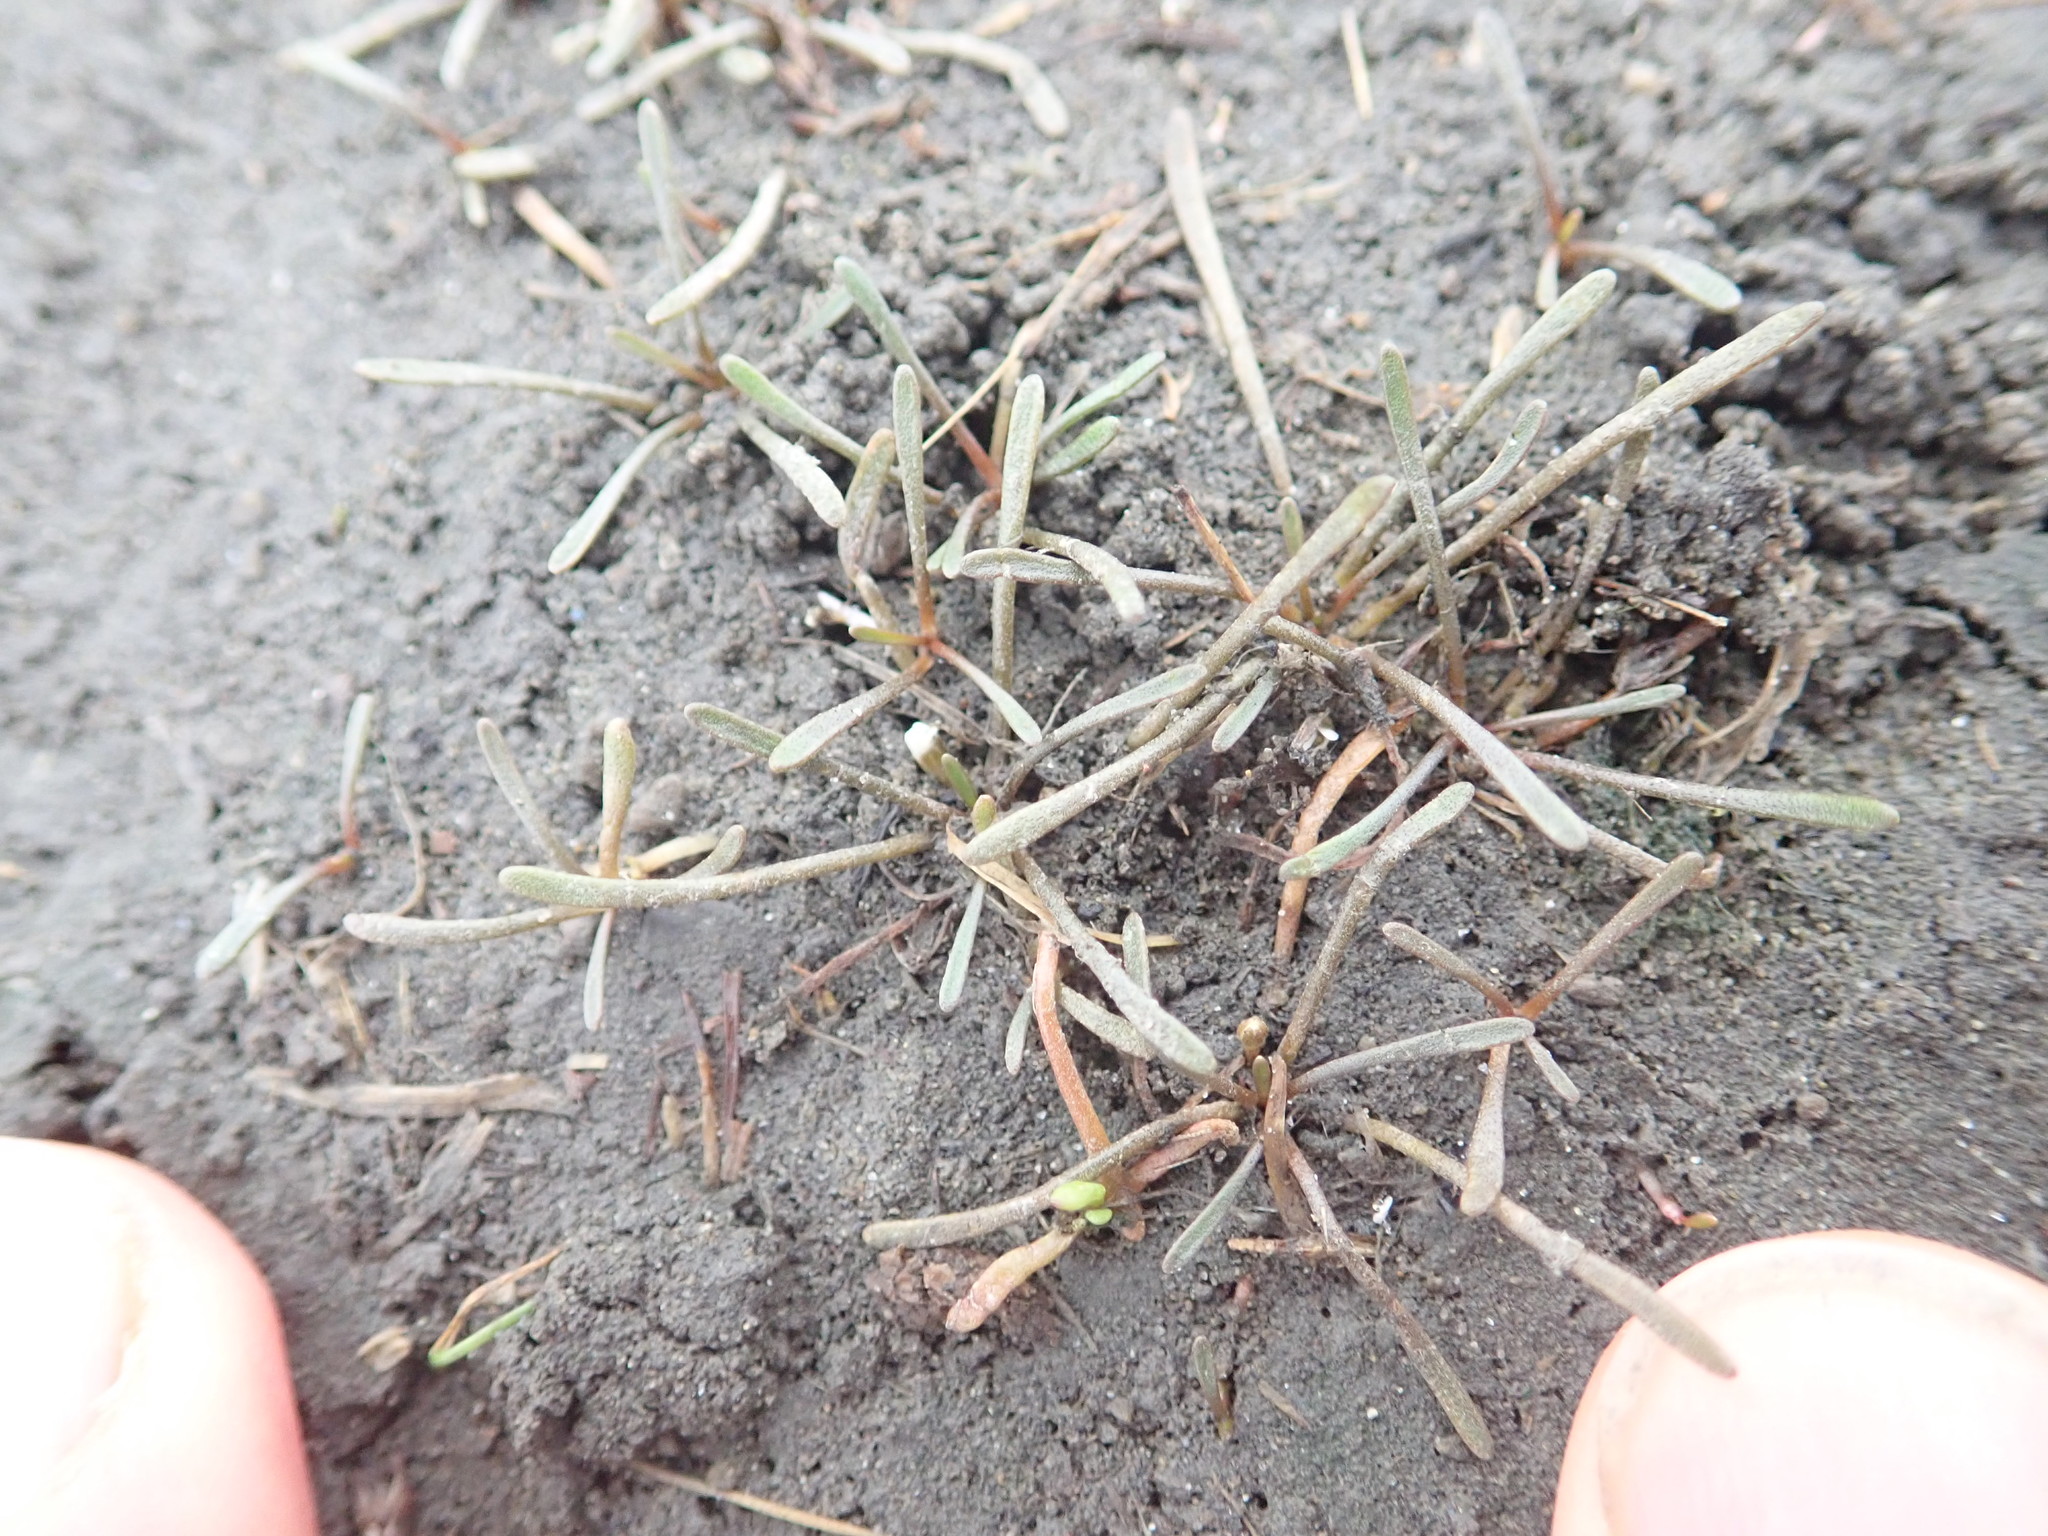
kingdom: Plantae
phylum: Tracheophyta
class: Magnoliopsida
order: Lamiales
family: Scrophulariaceae
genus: Limosella
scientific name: Limosella australis
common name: Welsh mudwort
